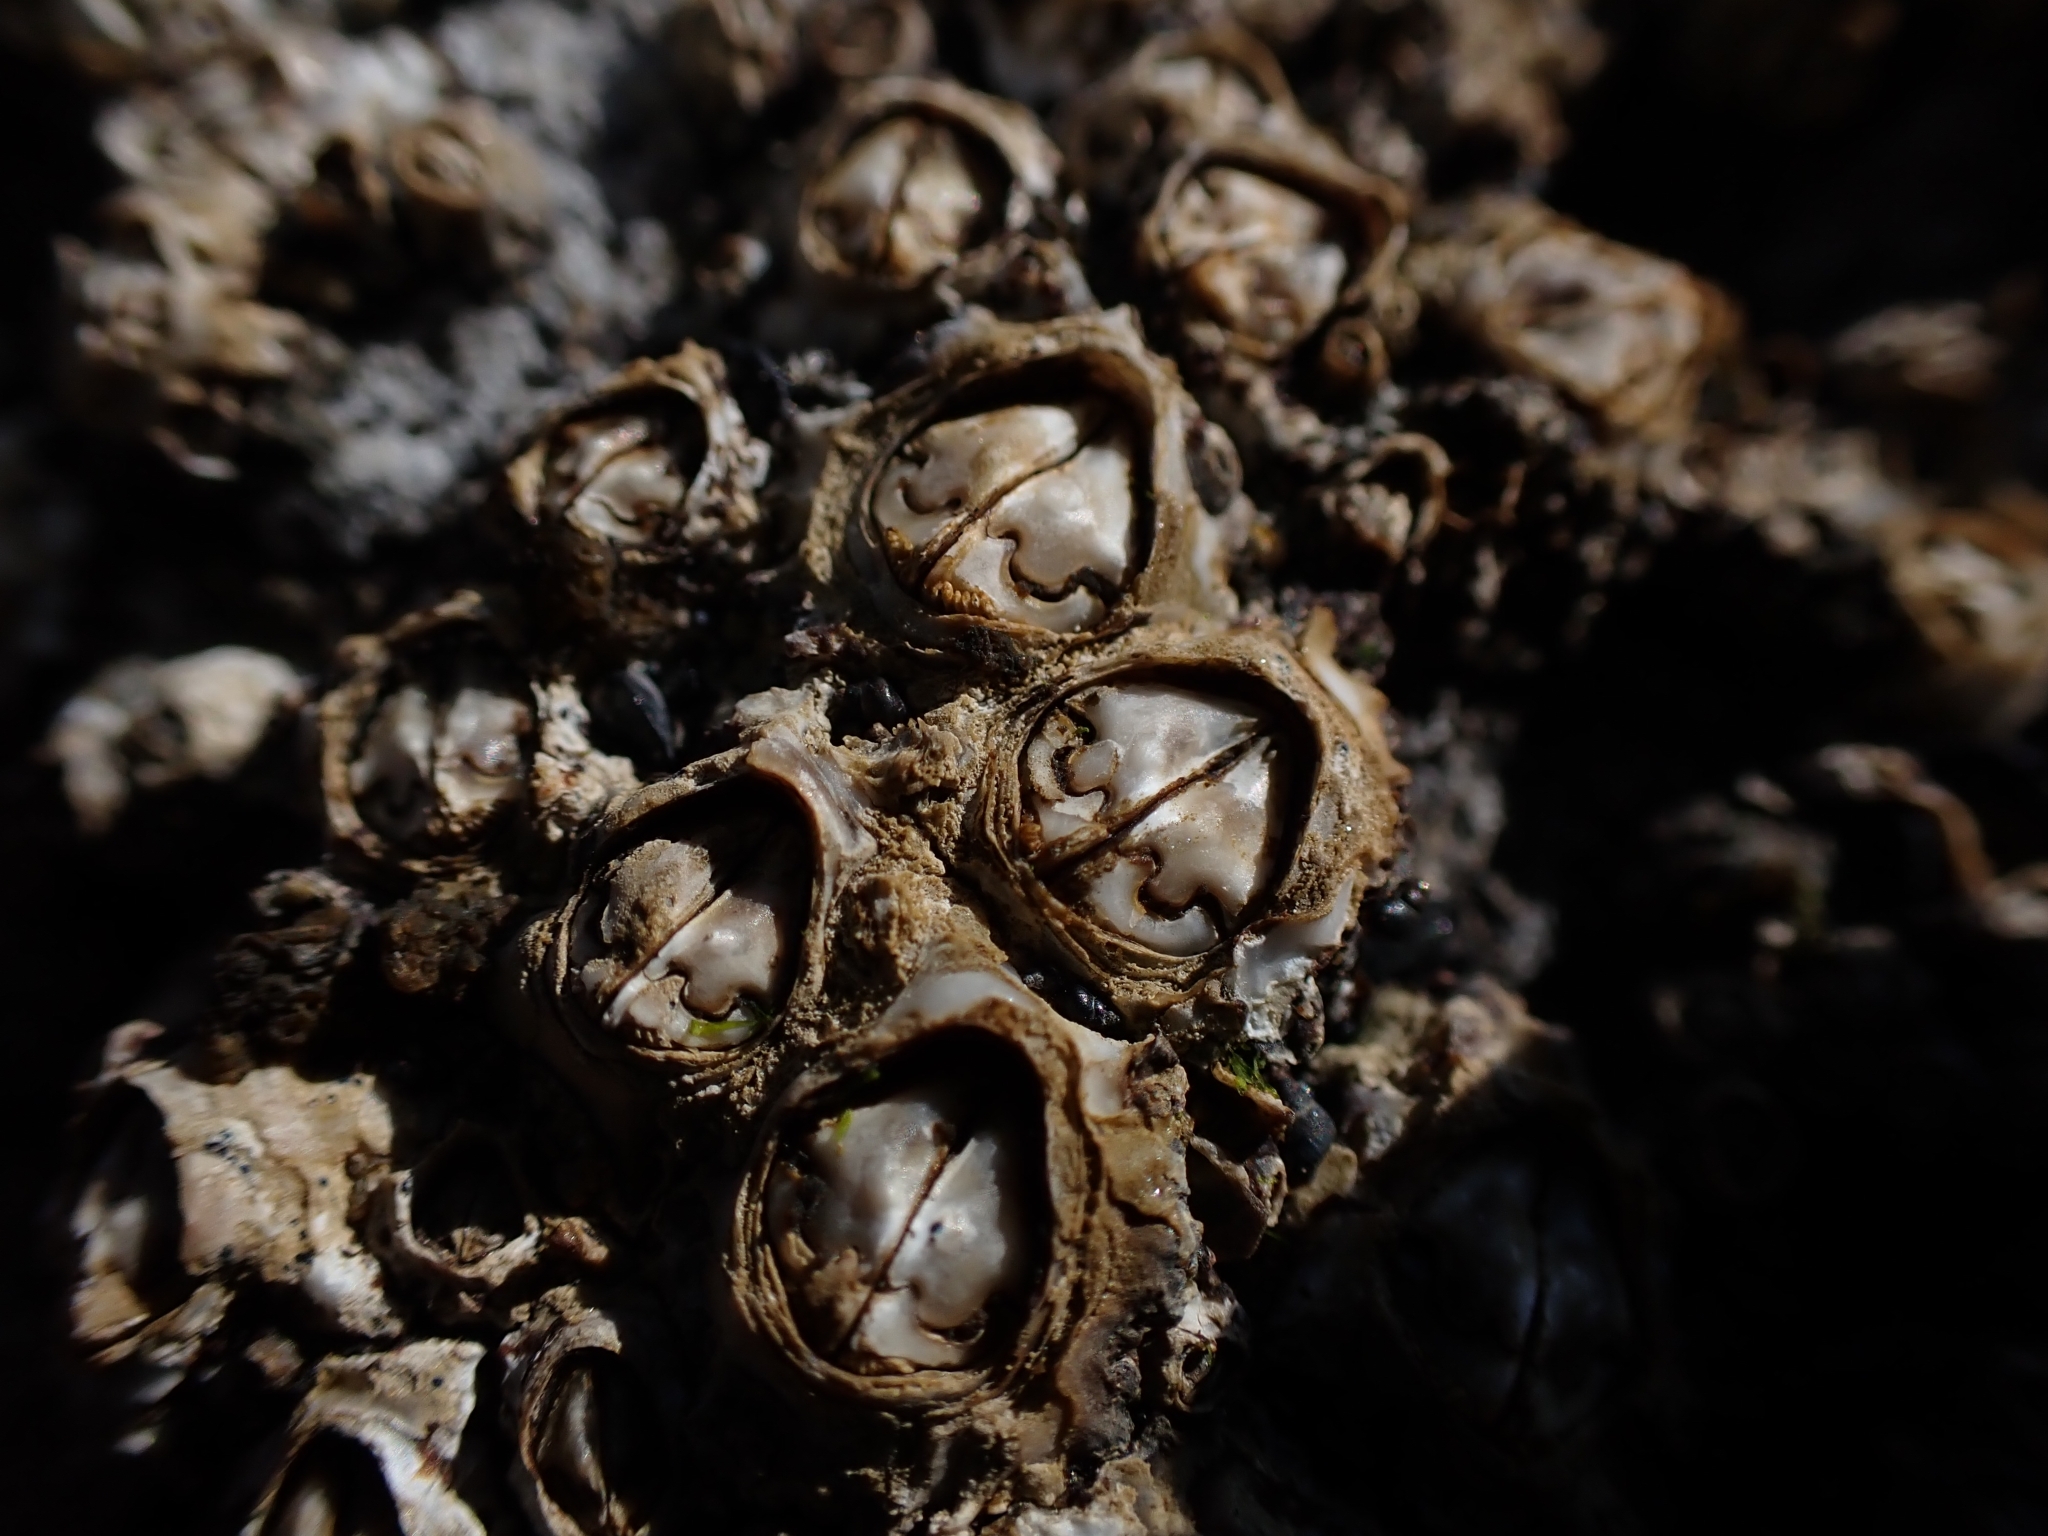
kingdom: Animalia
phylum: Arthropoda
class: Maxillopoda
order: Sessilia
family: Chthamalidae
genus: Chamaesipho
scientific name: Chamaesipho brunnea
